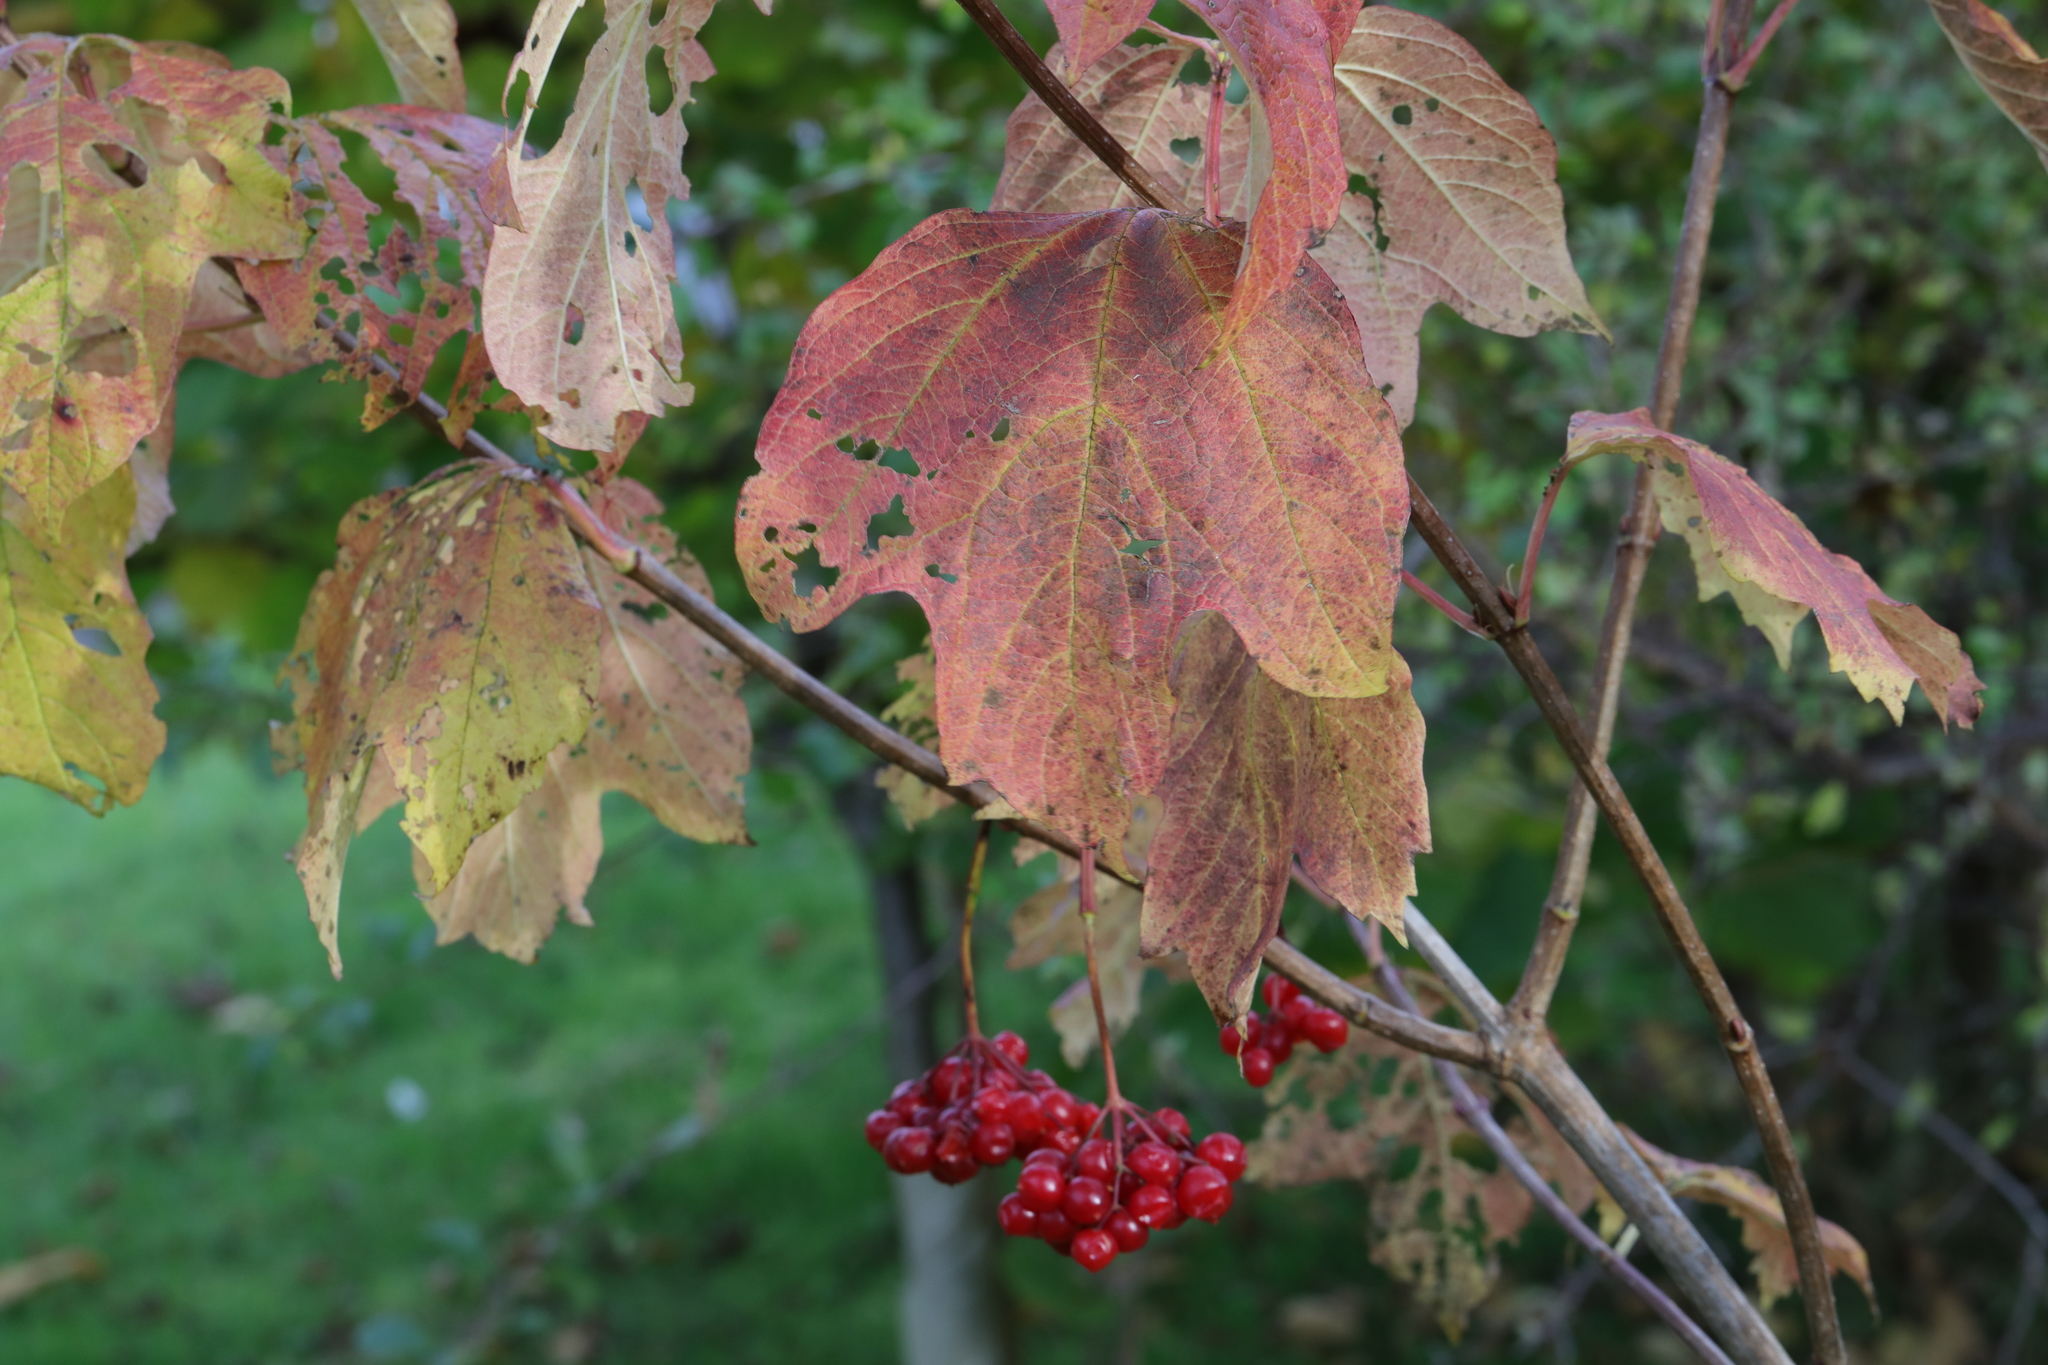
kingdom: Plantae
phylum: Tracheophyta
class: Magnoliopsida
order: Dipsacales
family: Viburnaceae
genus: Viburnum
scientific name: Viburnum opulus
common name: Guelder-rose
